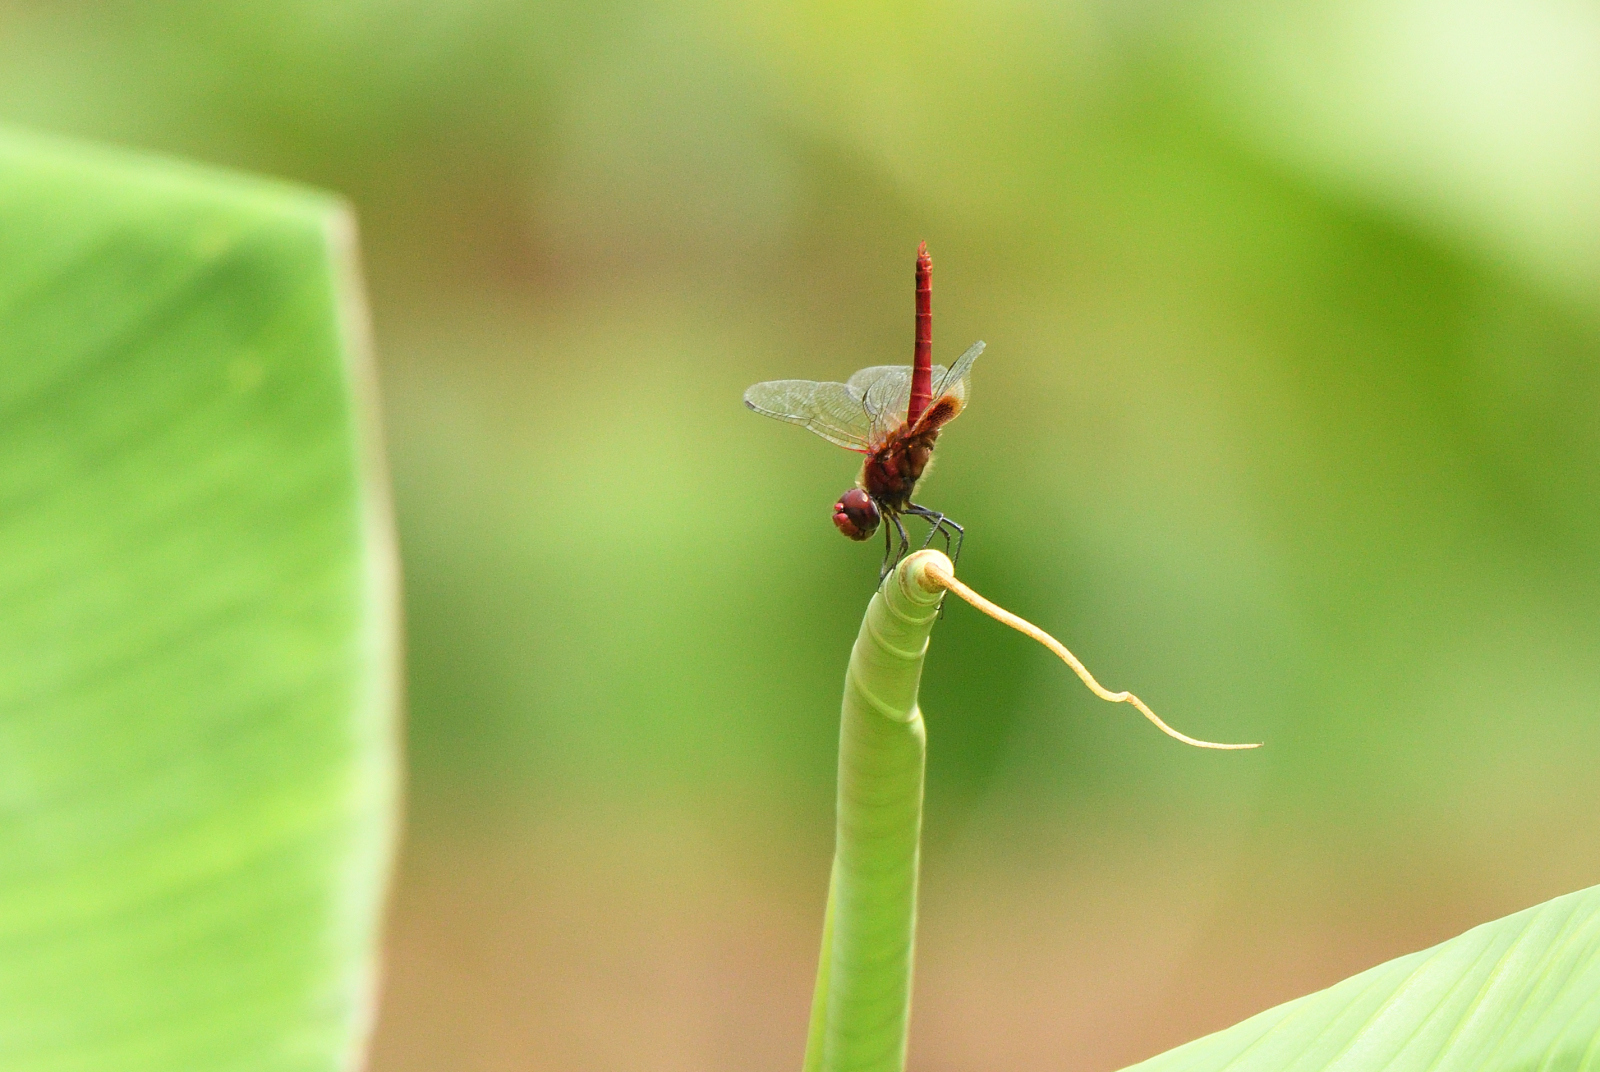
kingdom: Animalia
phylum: Arthropoda
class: Insecta
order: Odonata
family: Libellulidae
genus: Urothemis
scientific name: Urothemis signata
